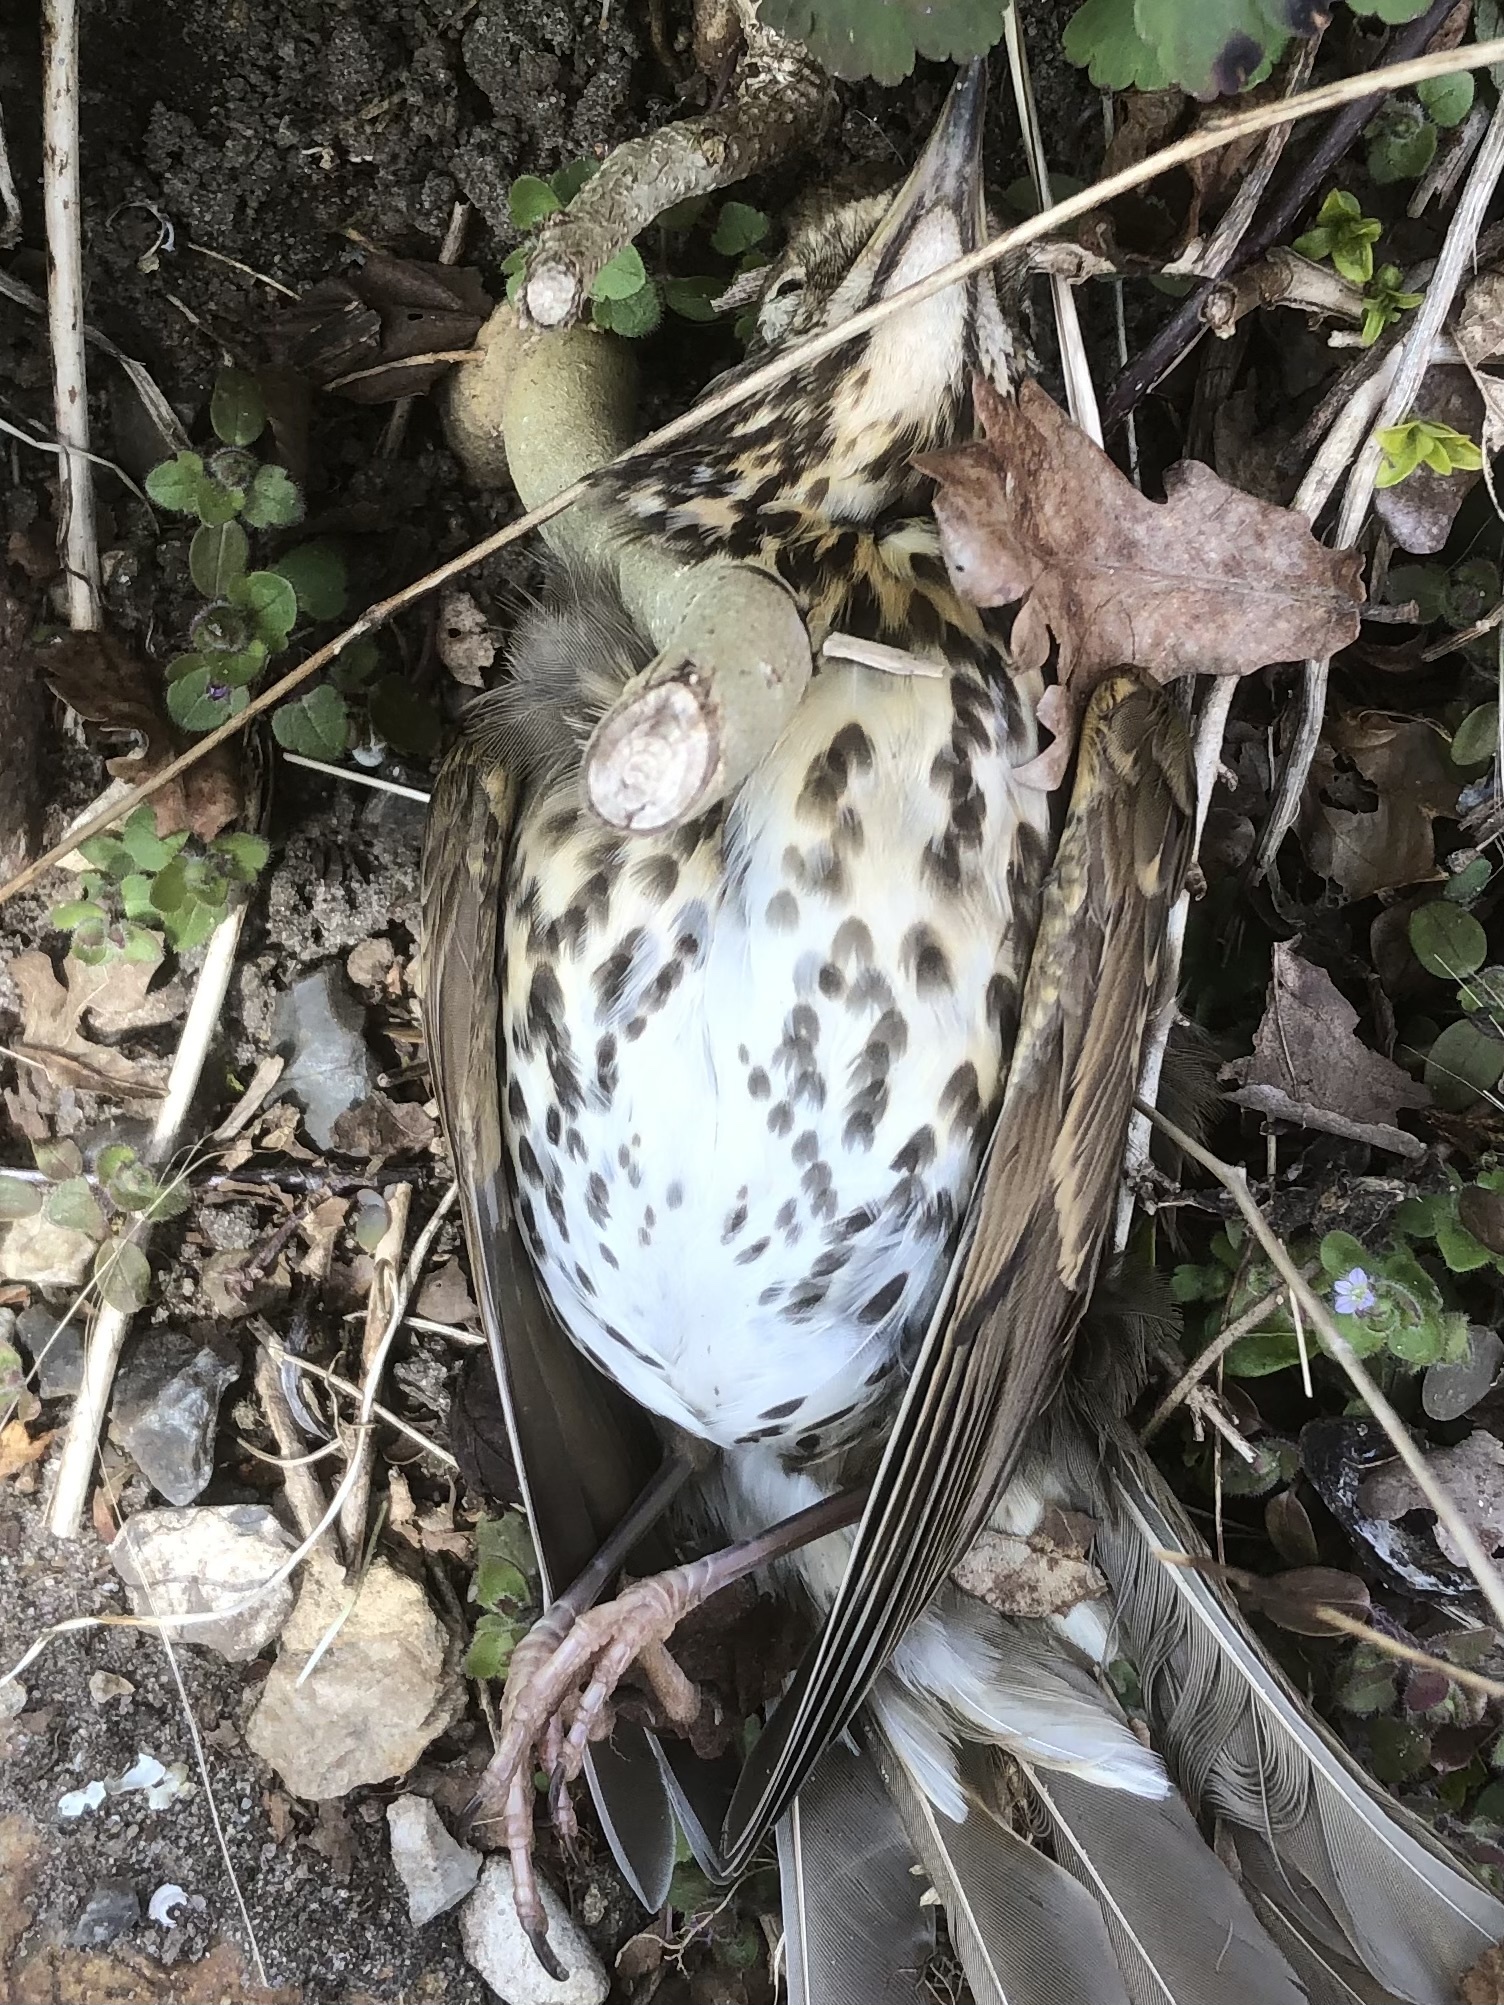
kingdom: Animalia
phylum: Chordata
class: Aves
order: Passeriformes
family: Turdidae
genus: Turdus
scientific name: Turdus philomelos
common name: Song thrush
